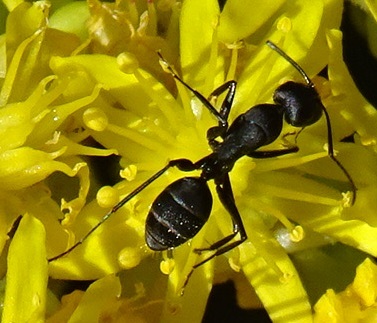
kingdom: Animalia
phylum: Arthropoda
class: Insecta
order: Hymenoptera
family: Formicidae
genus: Camponotus
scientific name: Camponotus feai
